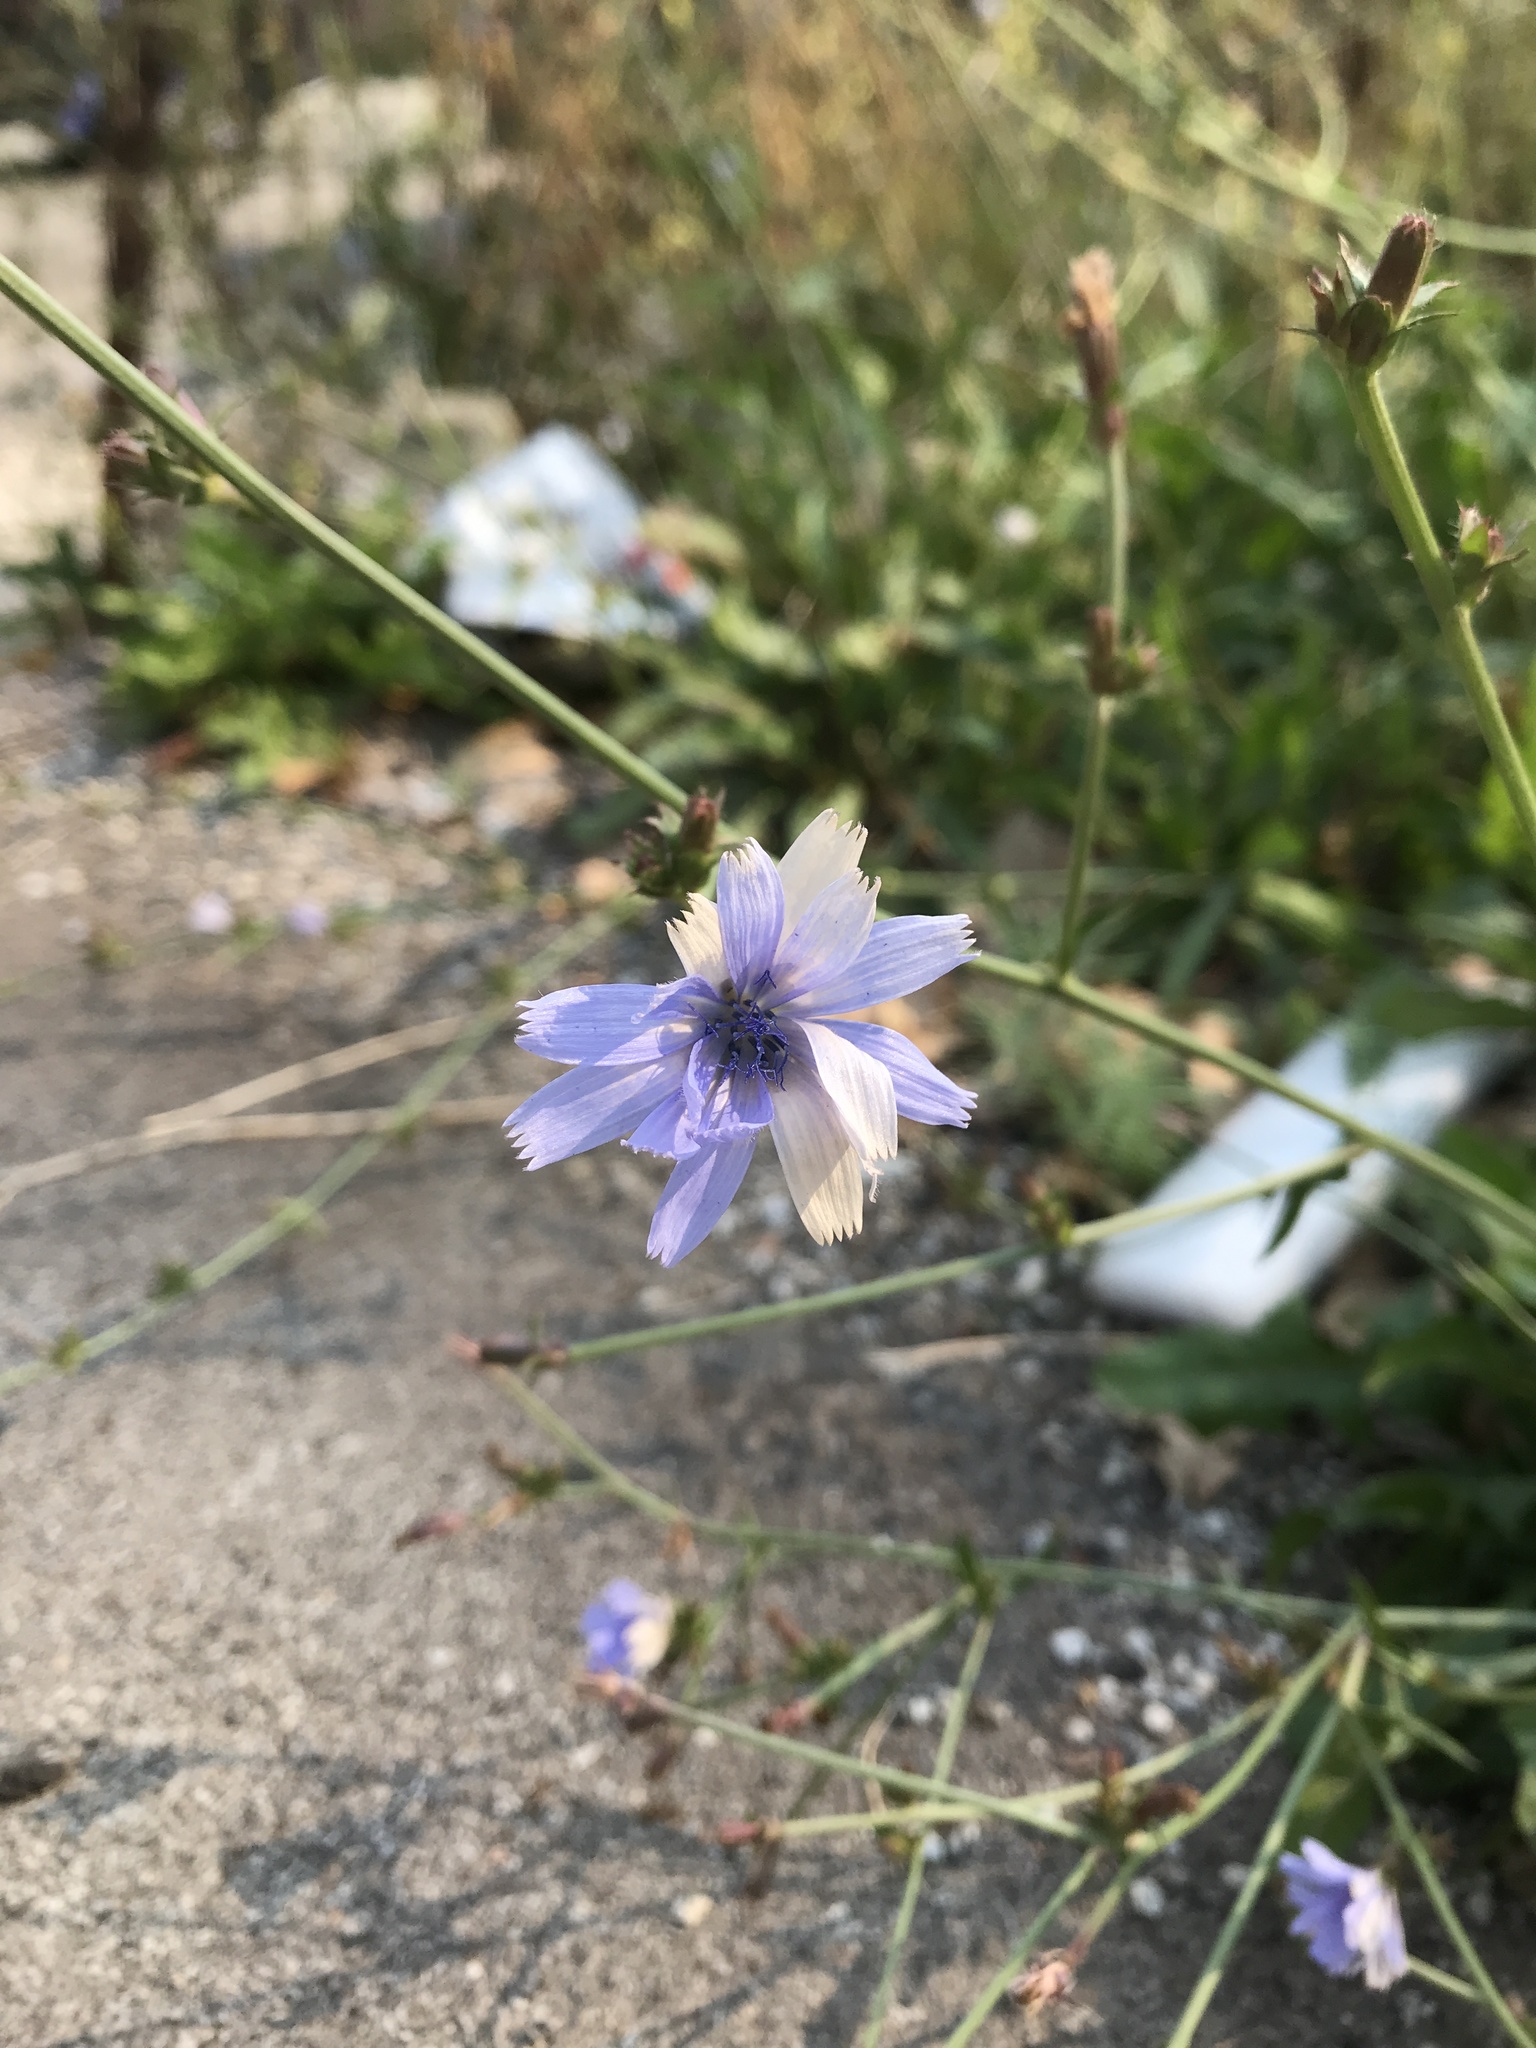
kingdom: Plantae
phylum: Tracheophyta
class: Magnoliopsida
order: Asterales
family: Asteraceae
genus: Cichorium
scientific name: Cichorium intybus
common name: Chicory
